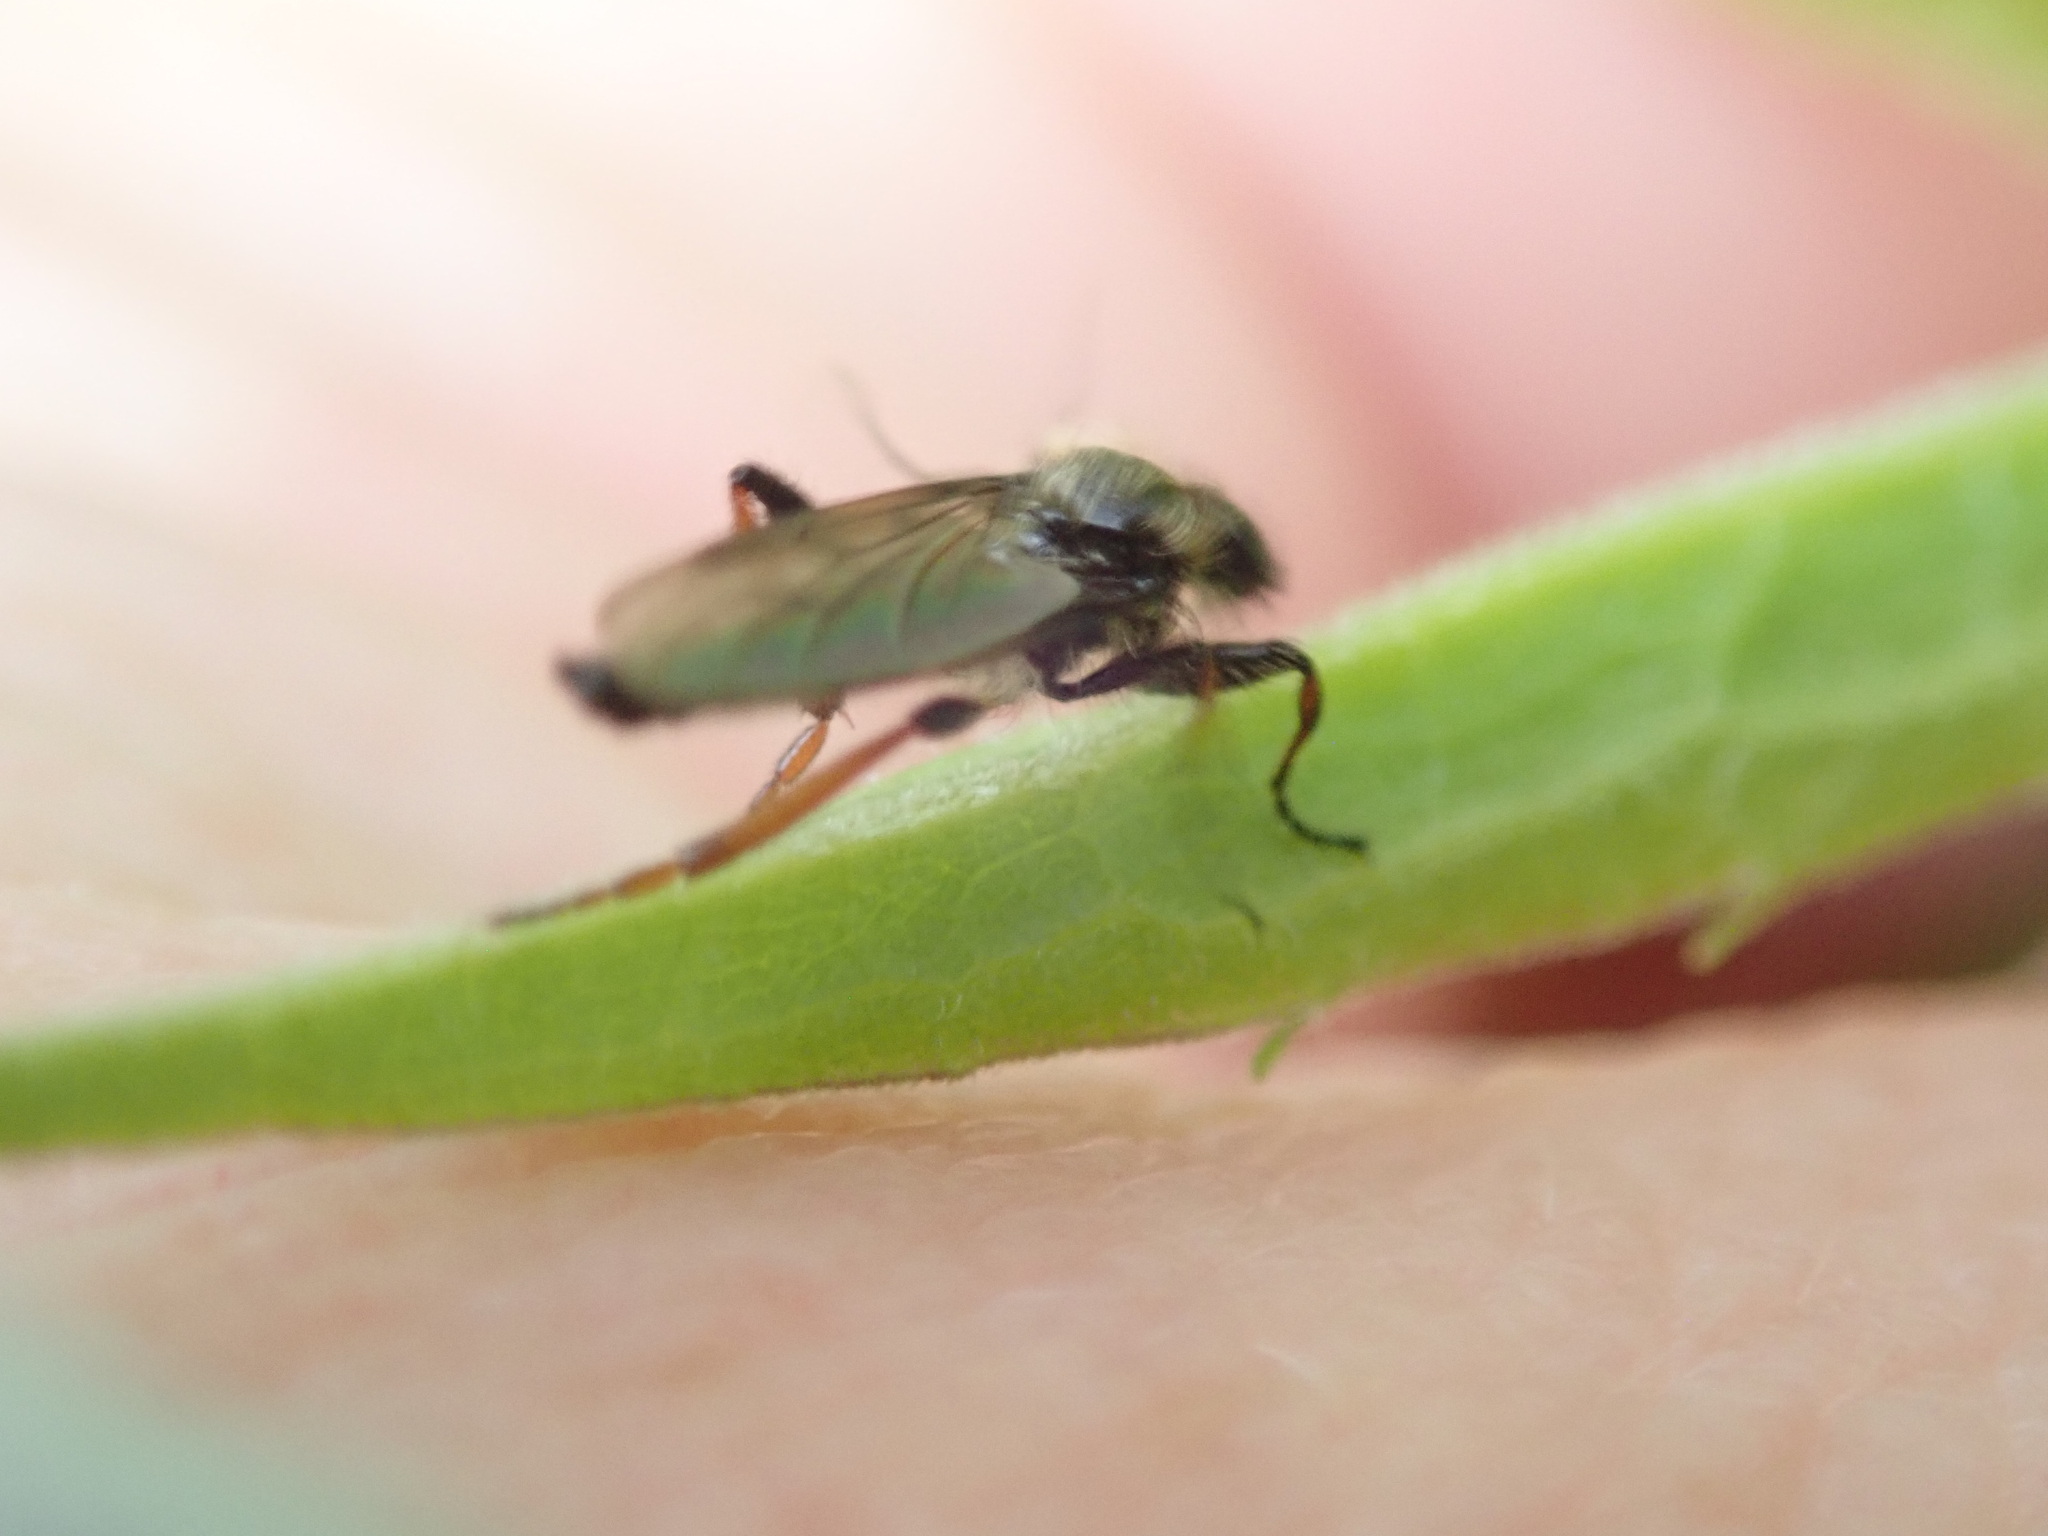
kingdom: Animalia
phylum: Arthropoda
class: Insecta
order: Diptera
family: Bibionidae
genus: Bibio
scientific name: Bibio lanigerus
